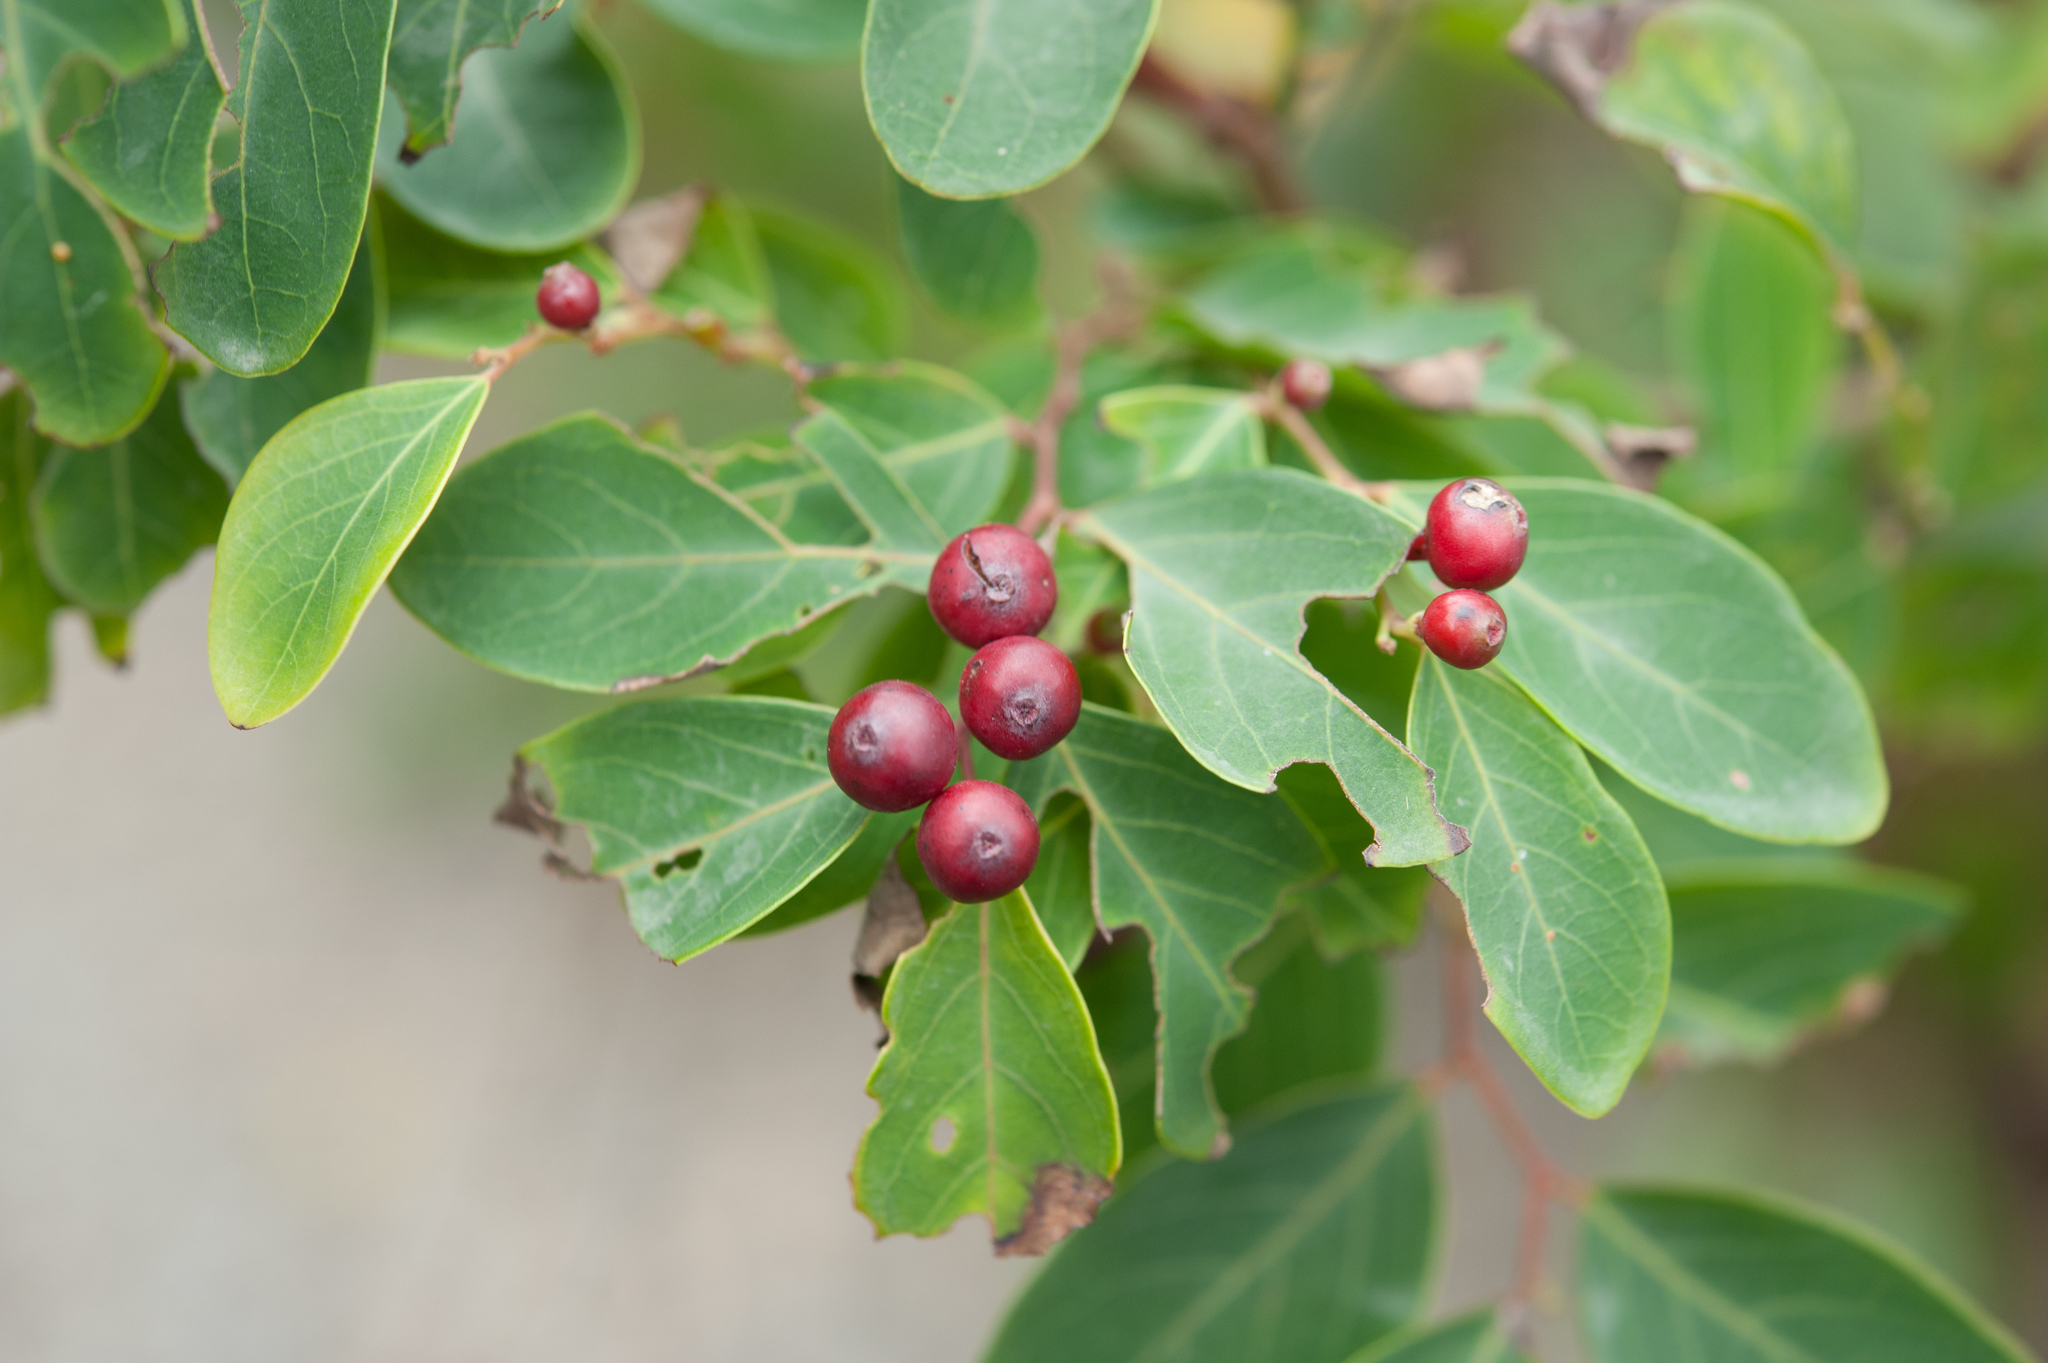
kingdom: Plantae
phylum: Tracheophyta
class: Magnoliopsida
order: Malpighiales
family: Phyllanthaceae
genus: Breynia
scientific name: Breynia vitis-idaea
